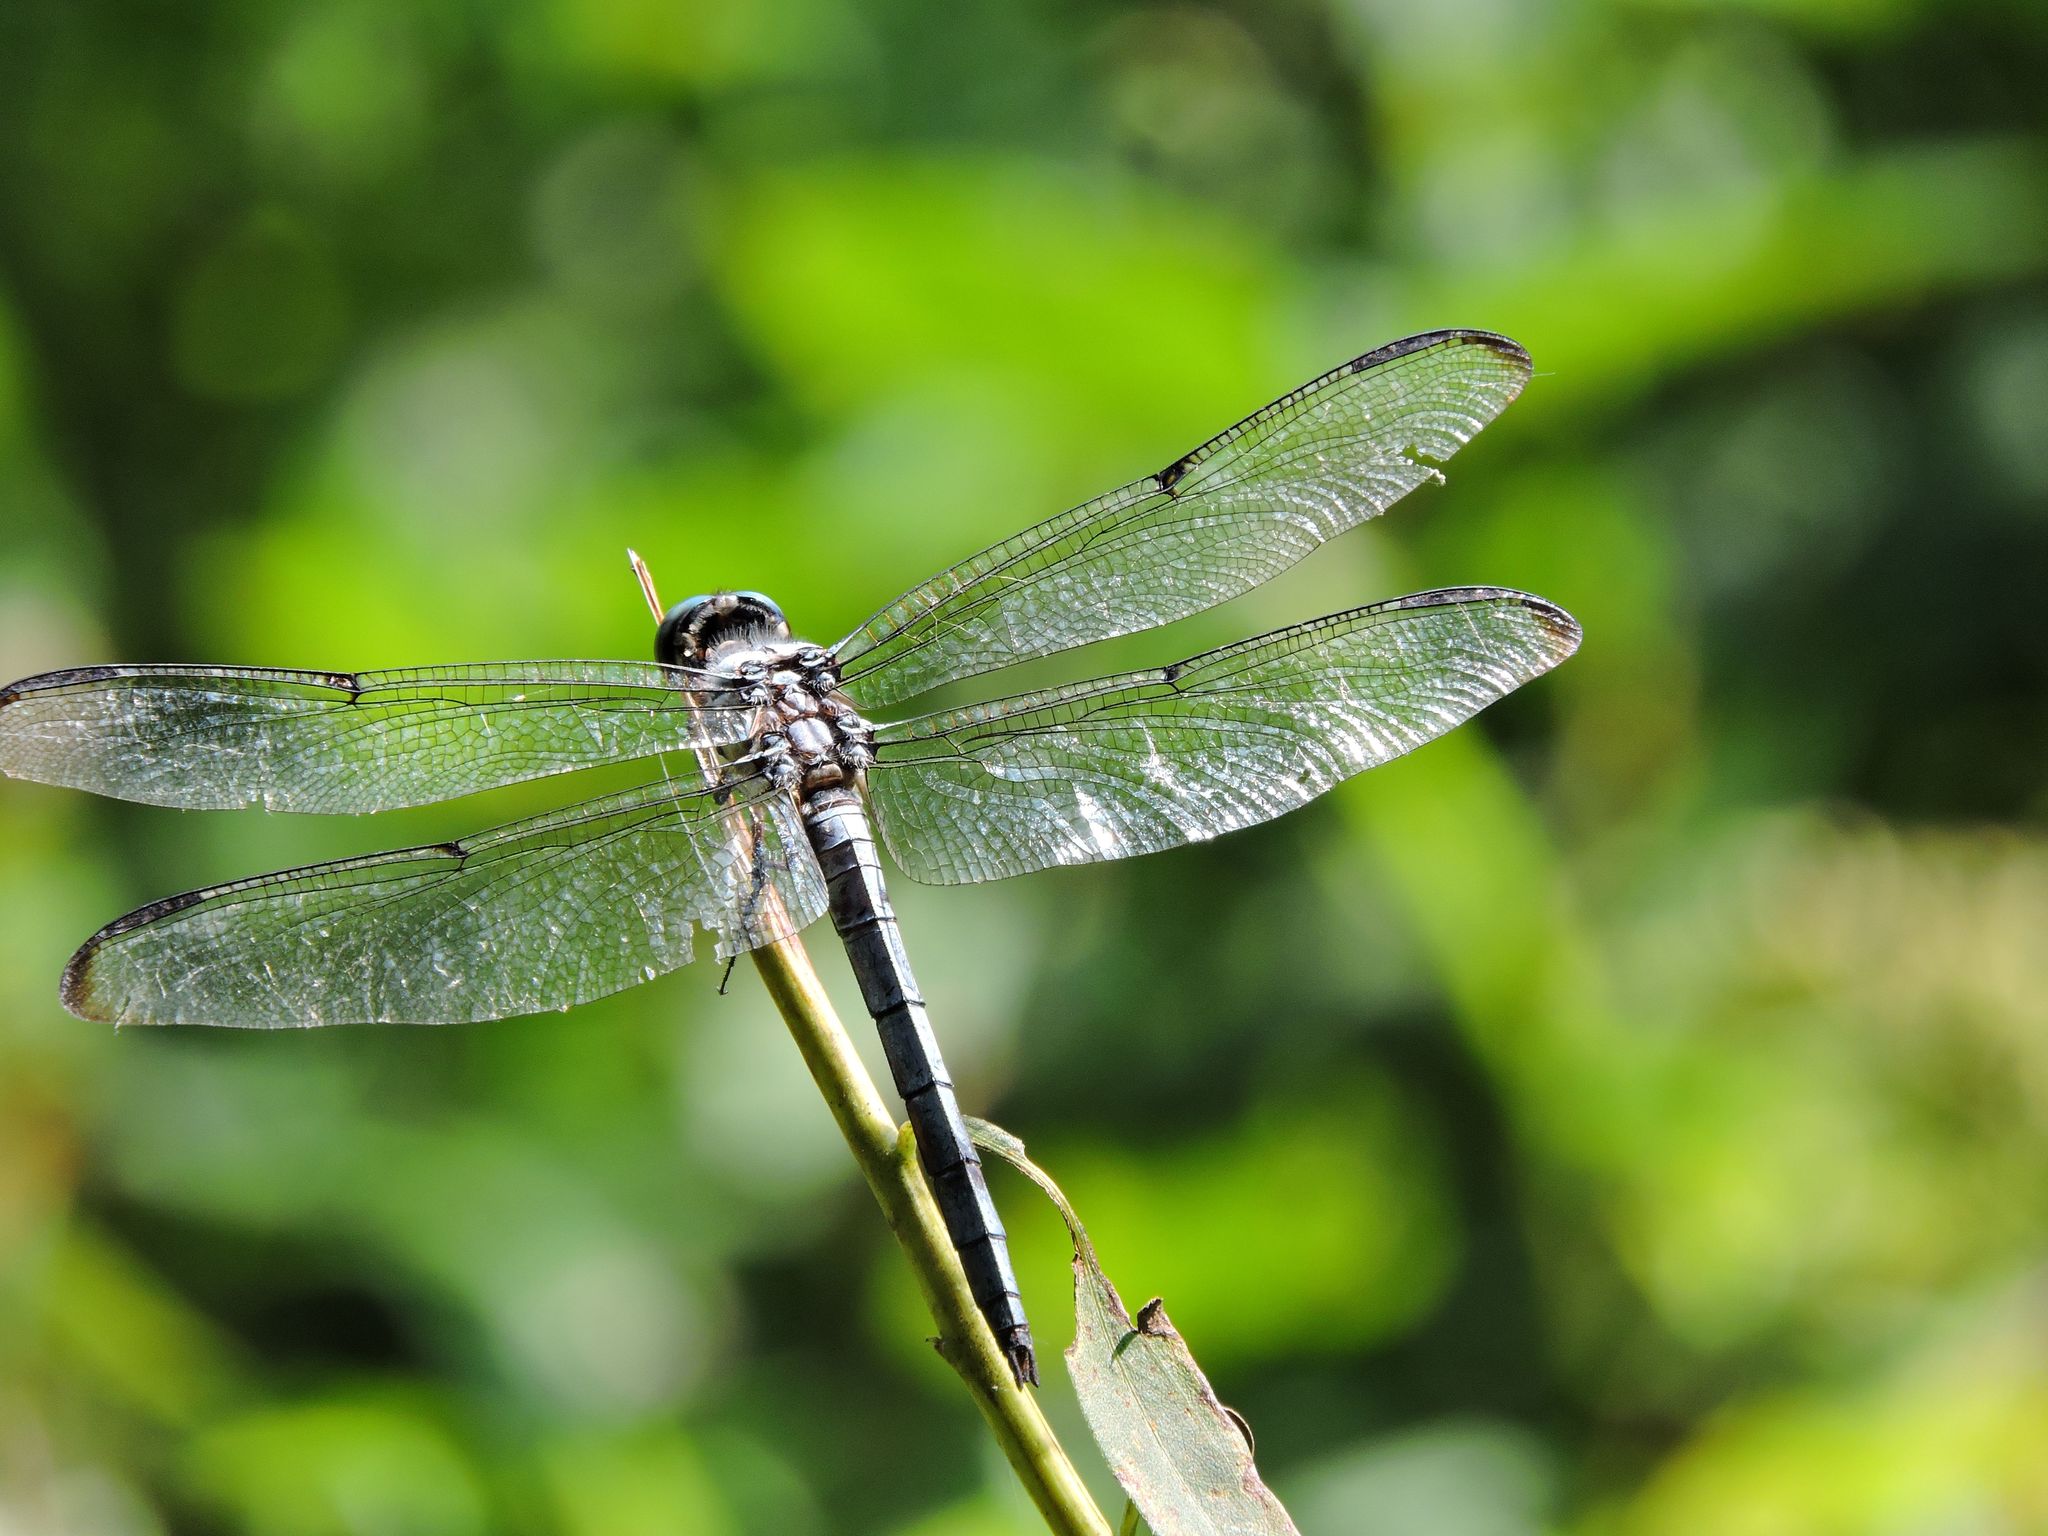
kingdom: Animalia
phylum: Arthropoda
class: Insecta
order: Odonata
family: Libellulidae
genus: Libellula
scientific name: Libellula vibrans
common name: Great blue skimmer
